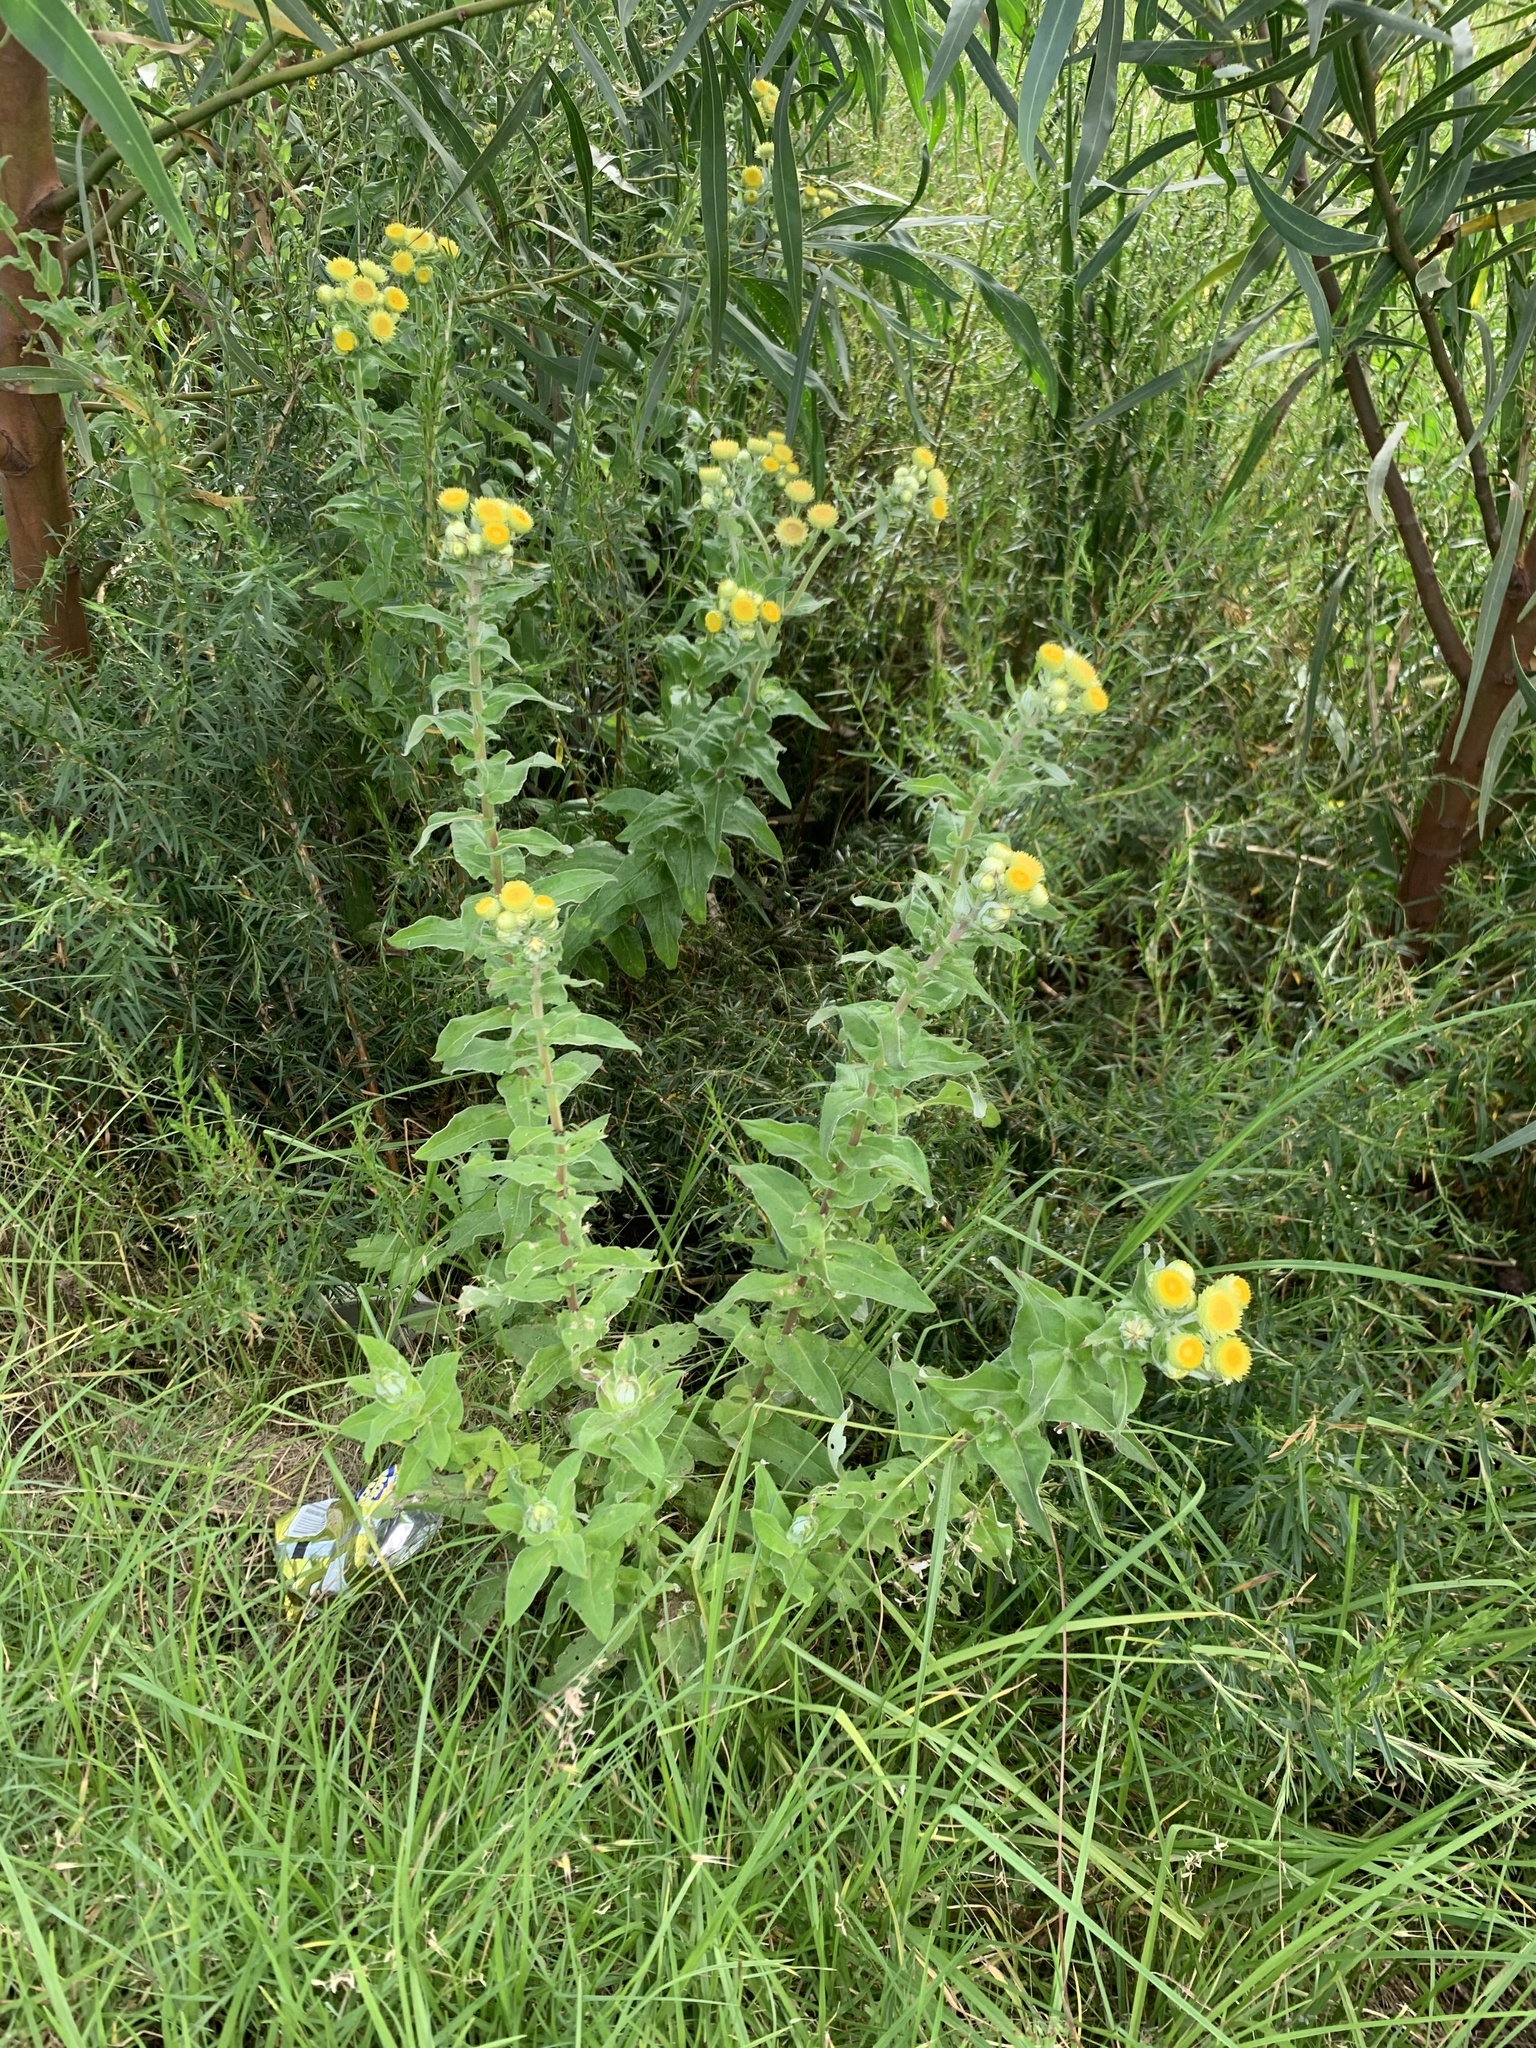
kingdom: Plantae
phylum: Tracheophyta
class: Magnoliopsida
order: Asterales
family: Asteraceae
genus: Helichrysum
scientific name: Helichrysum foetidum
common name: Stinking everlasting
